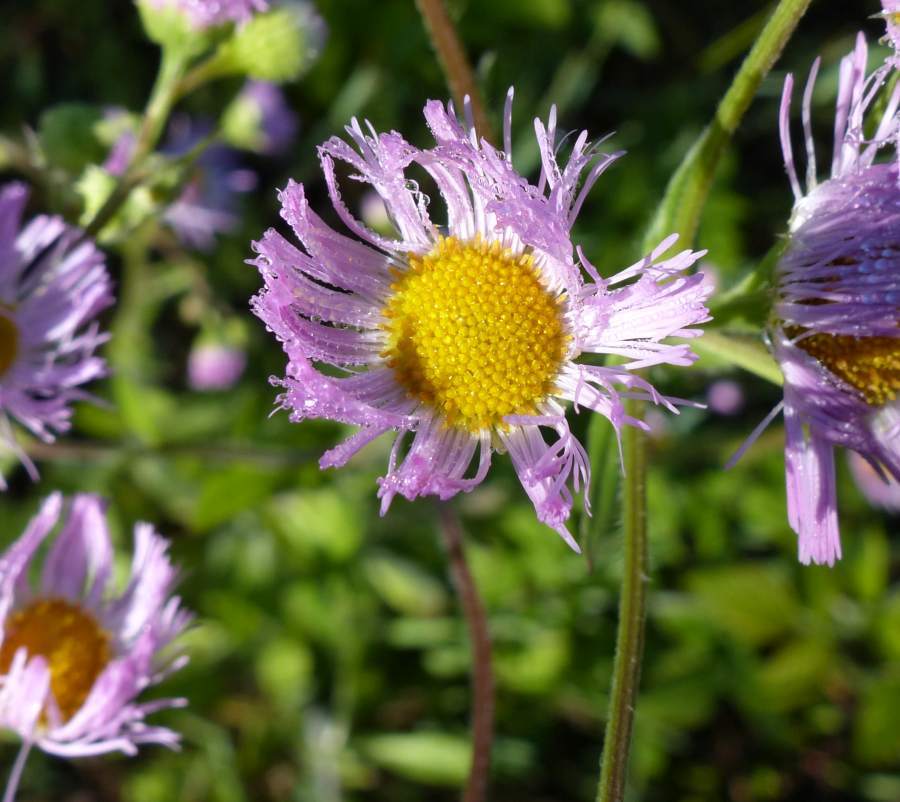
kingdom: Plantae
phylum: Tracheophyta
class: Magnoliopsida
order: Asterales
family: Asteraceae
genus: Erigeron
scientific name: Erigeron philadelphicus
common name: Robin's-plantain
